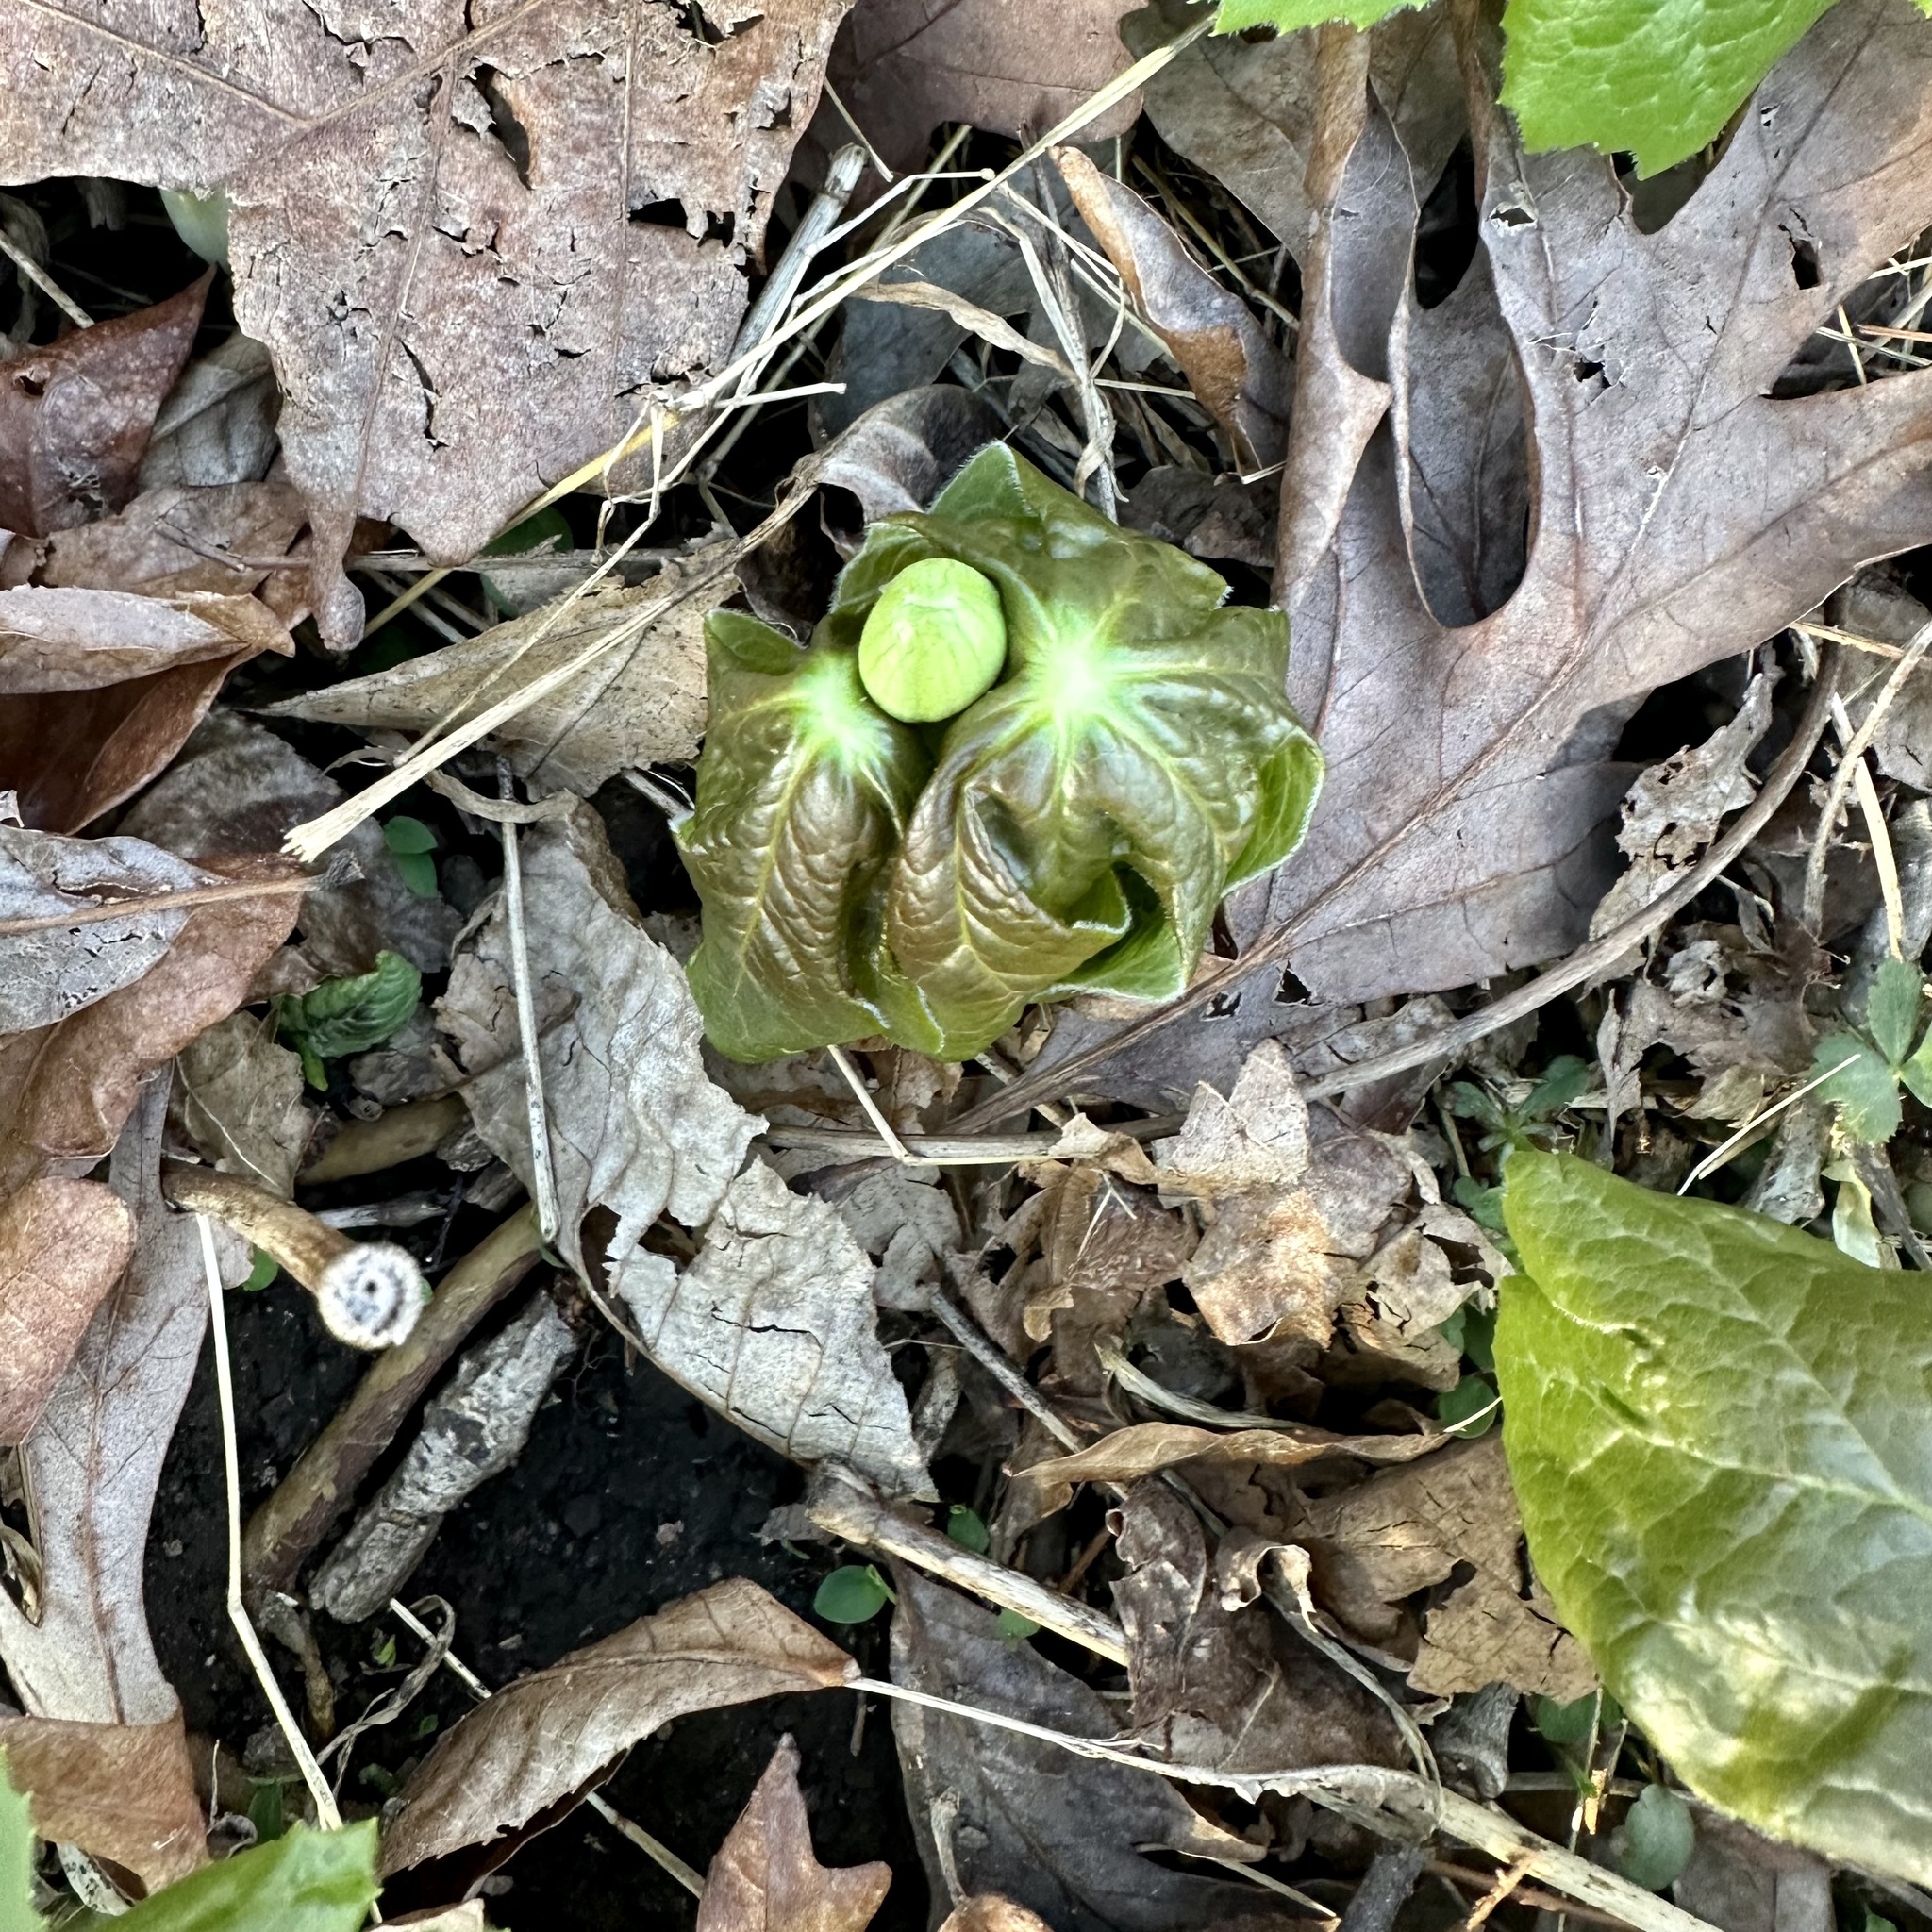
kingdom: Plantae
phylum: Tracheophyta
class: Magnoliopsida
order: Ranunculales
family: Berberidaceae
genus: Podophyllum
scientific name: Podophyllum peltatum
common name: Wild mandrake
